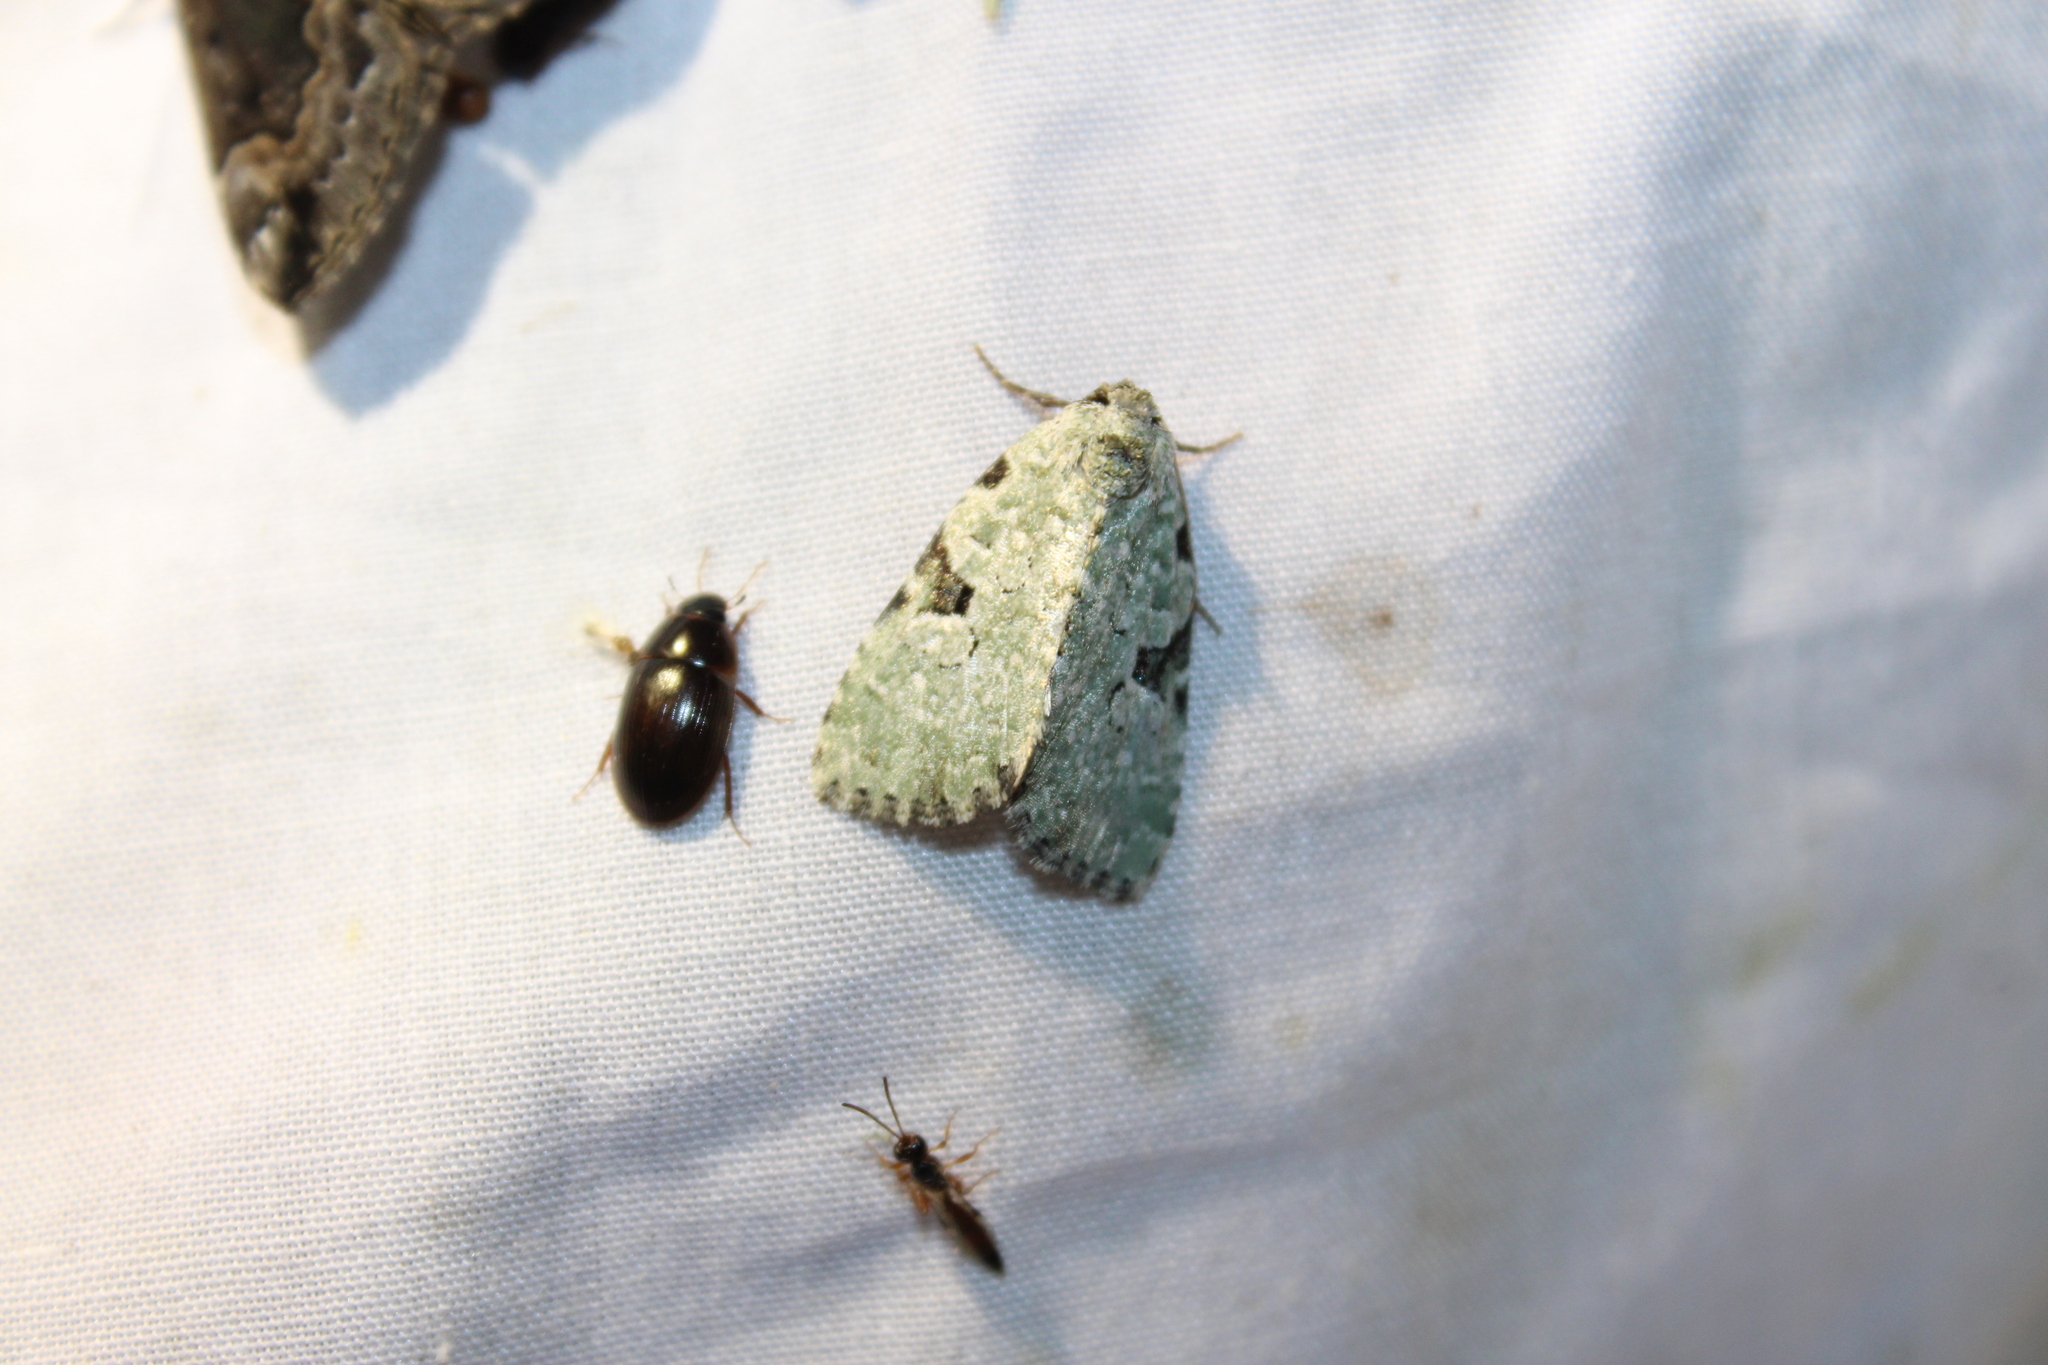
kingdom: Animalia
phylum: Arthropoda
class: Insecta
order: Lepidoptera
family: Noctuidae
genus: Leuconycta
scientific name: Leuconycta diphteroides
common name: Green leuconycta moth
